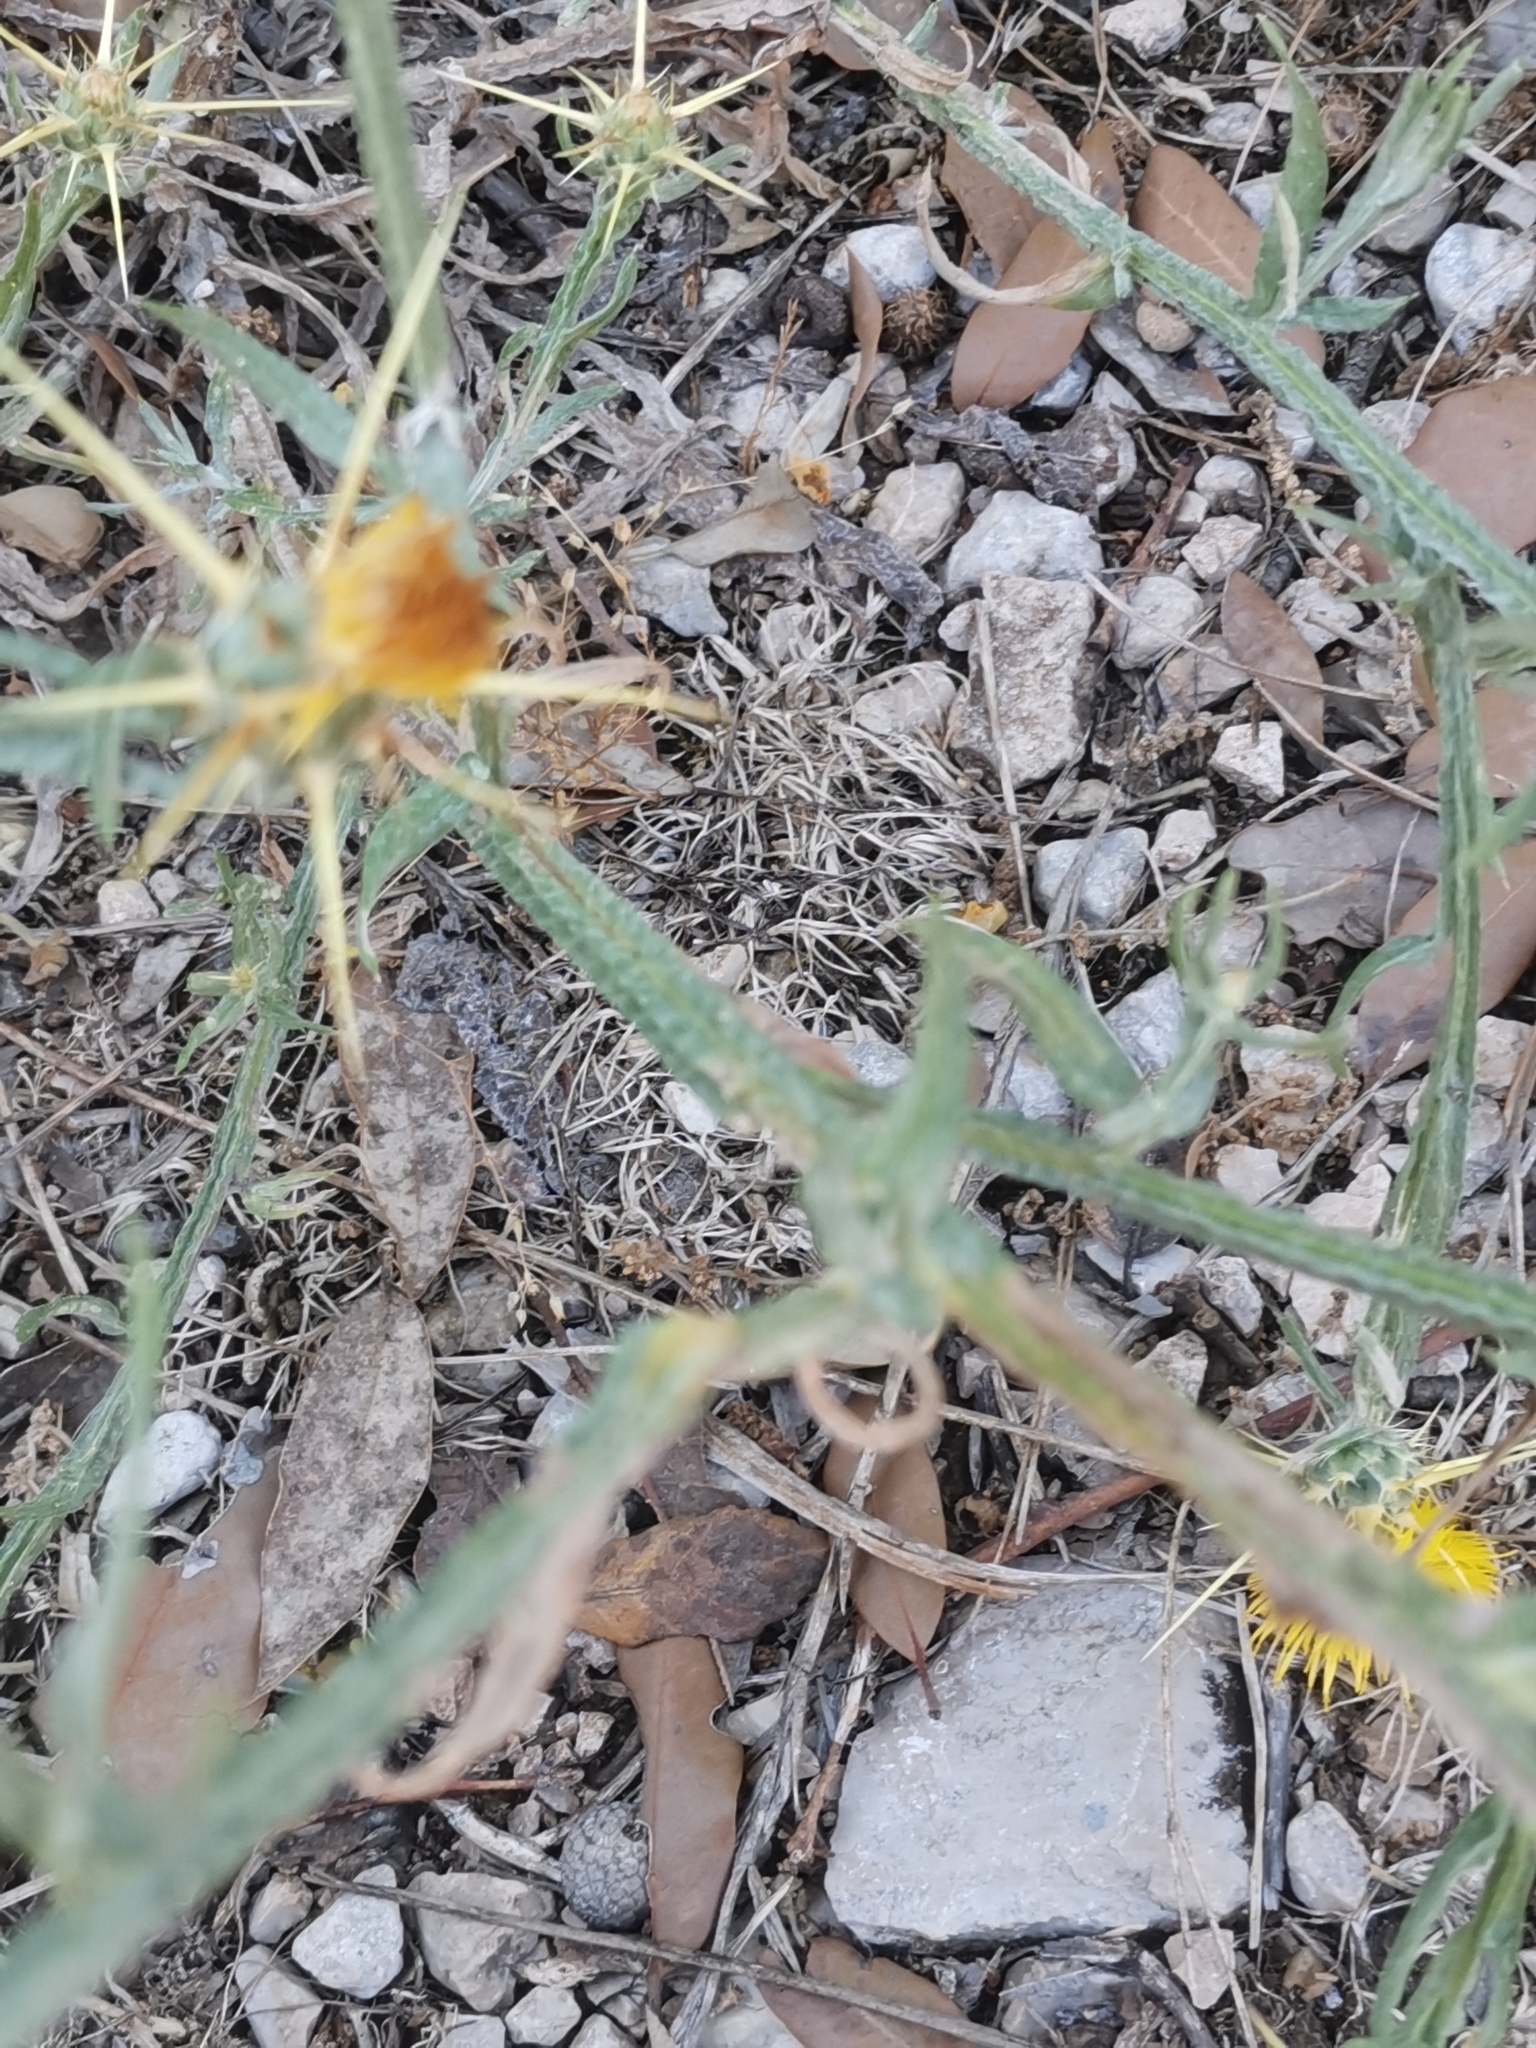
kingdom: Plantae
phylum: Tracheophyta
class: Magnoliopsida
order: Asterales
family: Asteraceae
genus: Centaurea
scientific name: Centaurea solstitialis
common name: Yellow star-thistle
